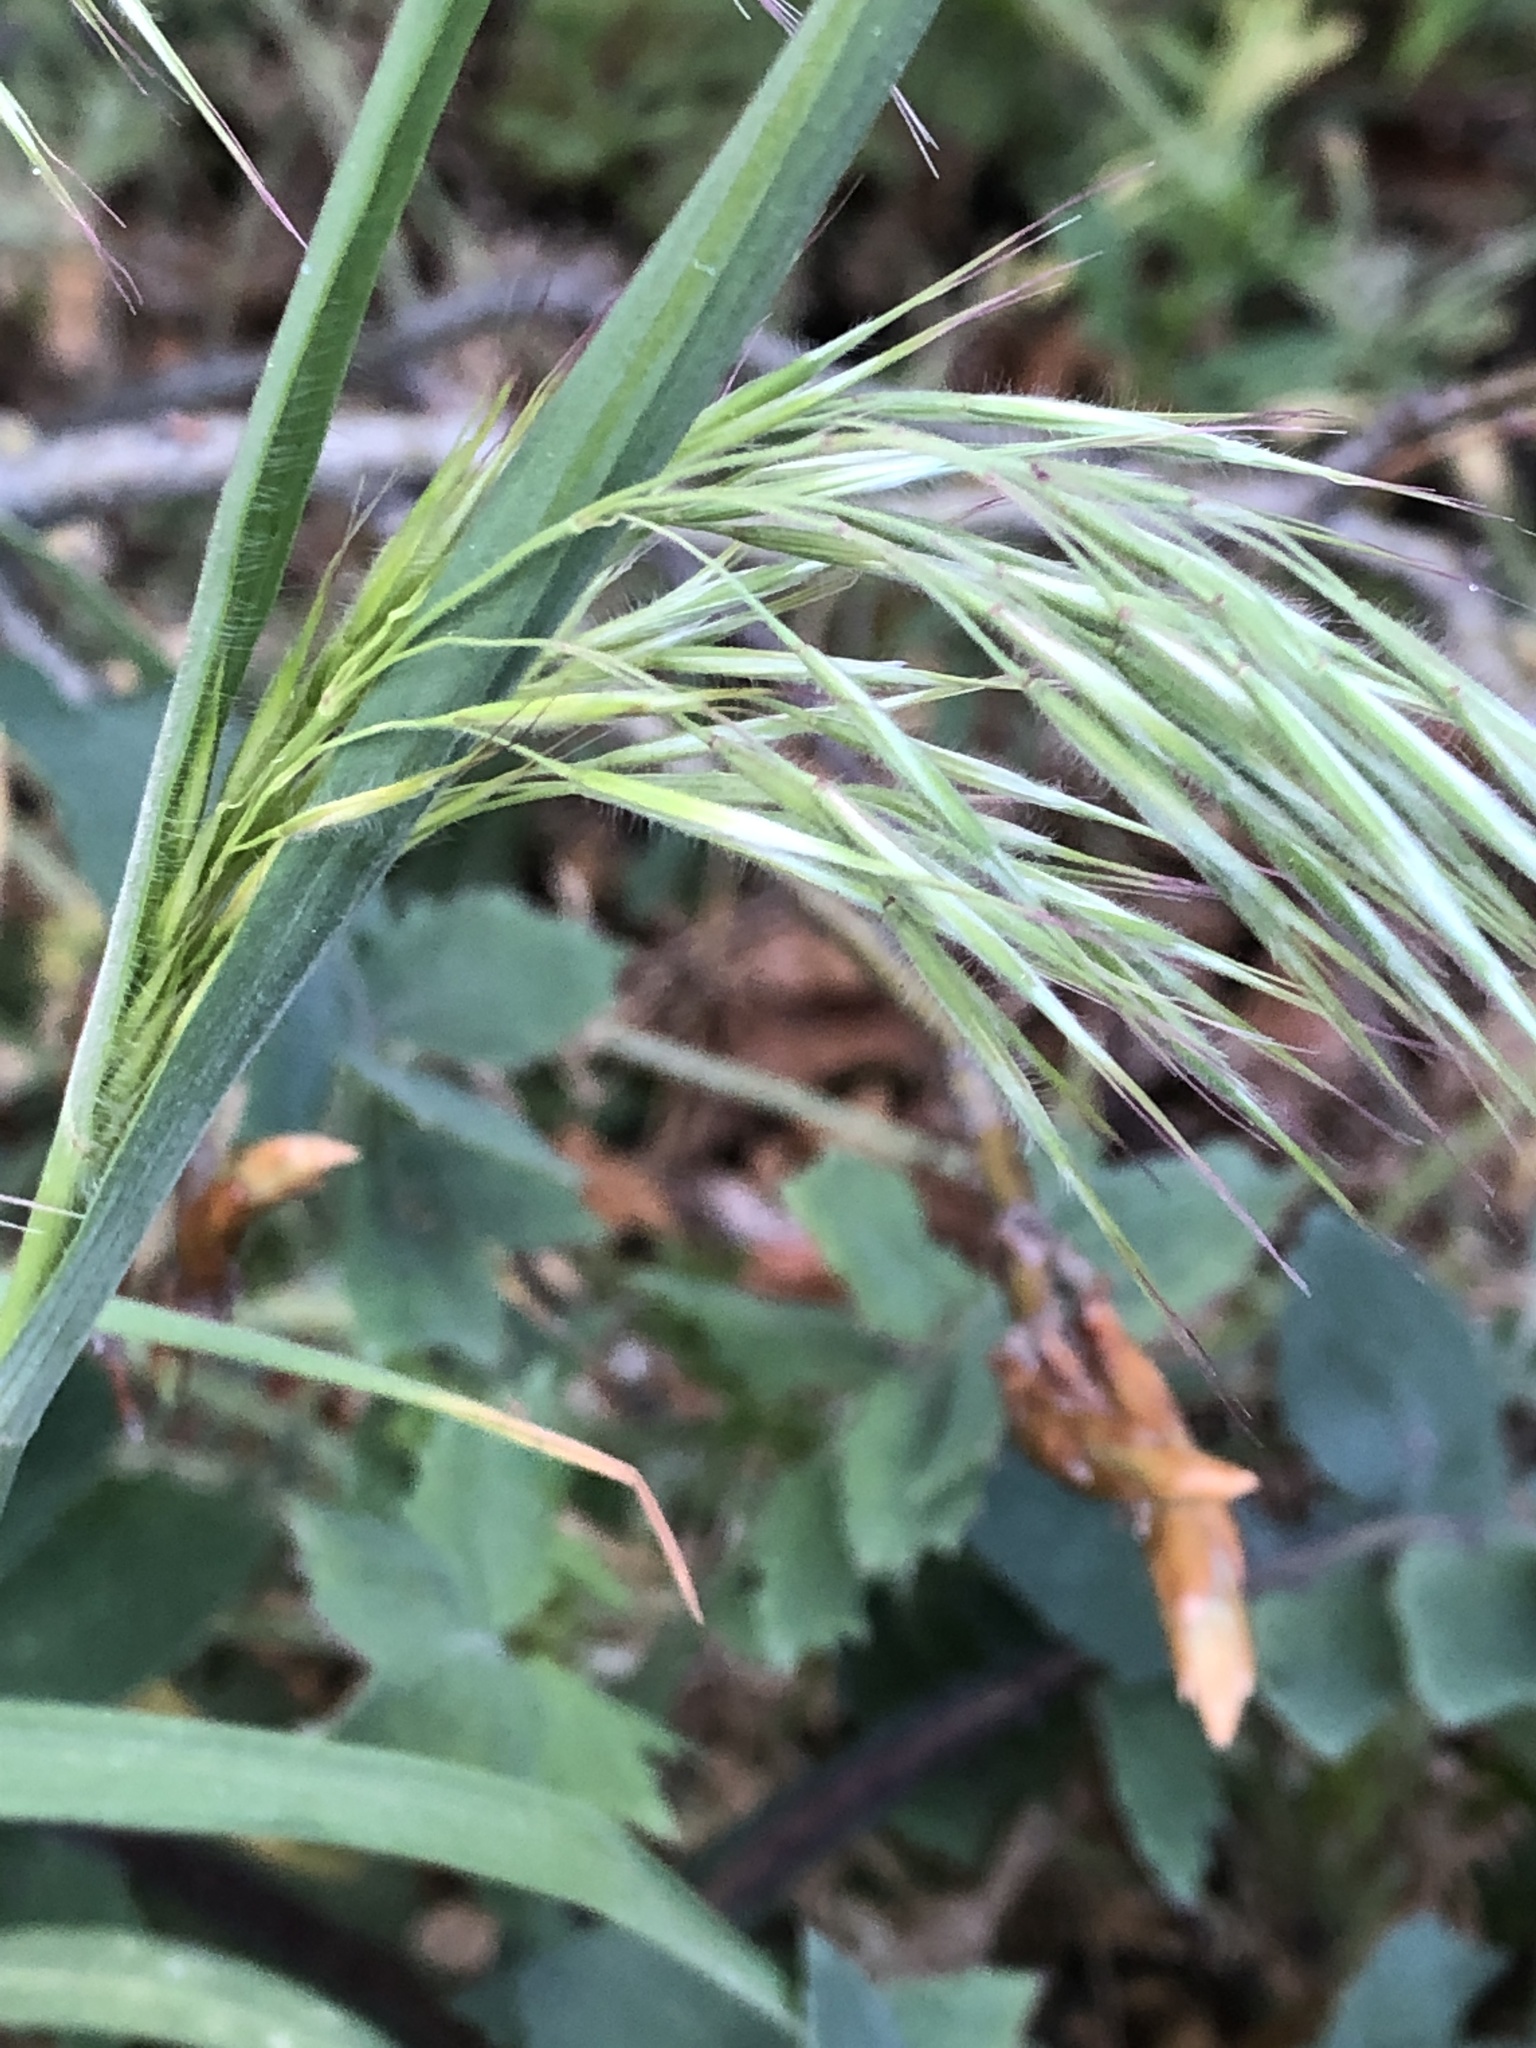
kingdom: Plantae
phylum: Tracheophyta
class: Liliopsida
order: Poales
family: Poaceae
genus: Bromus
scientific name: Bromus tectorum
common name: Cheatgrass
